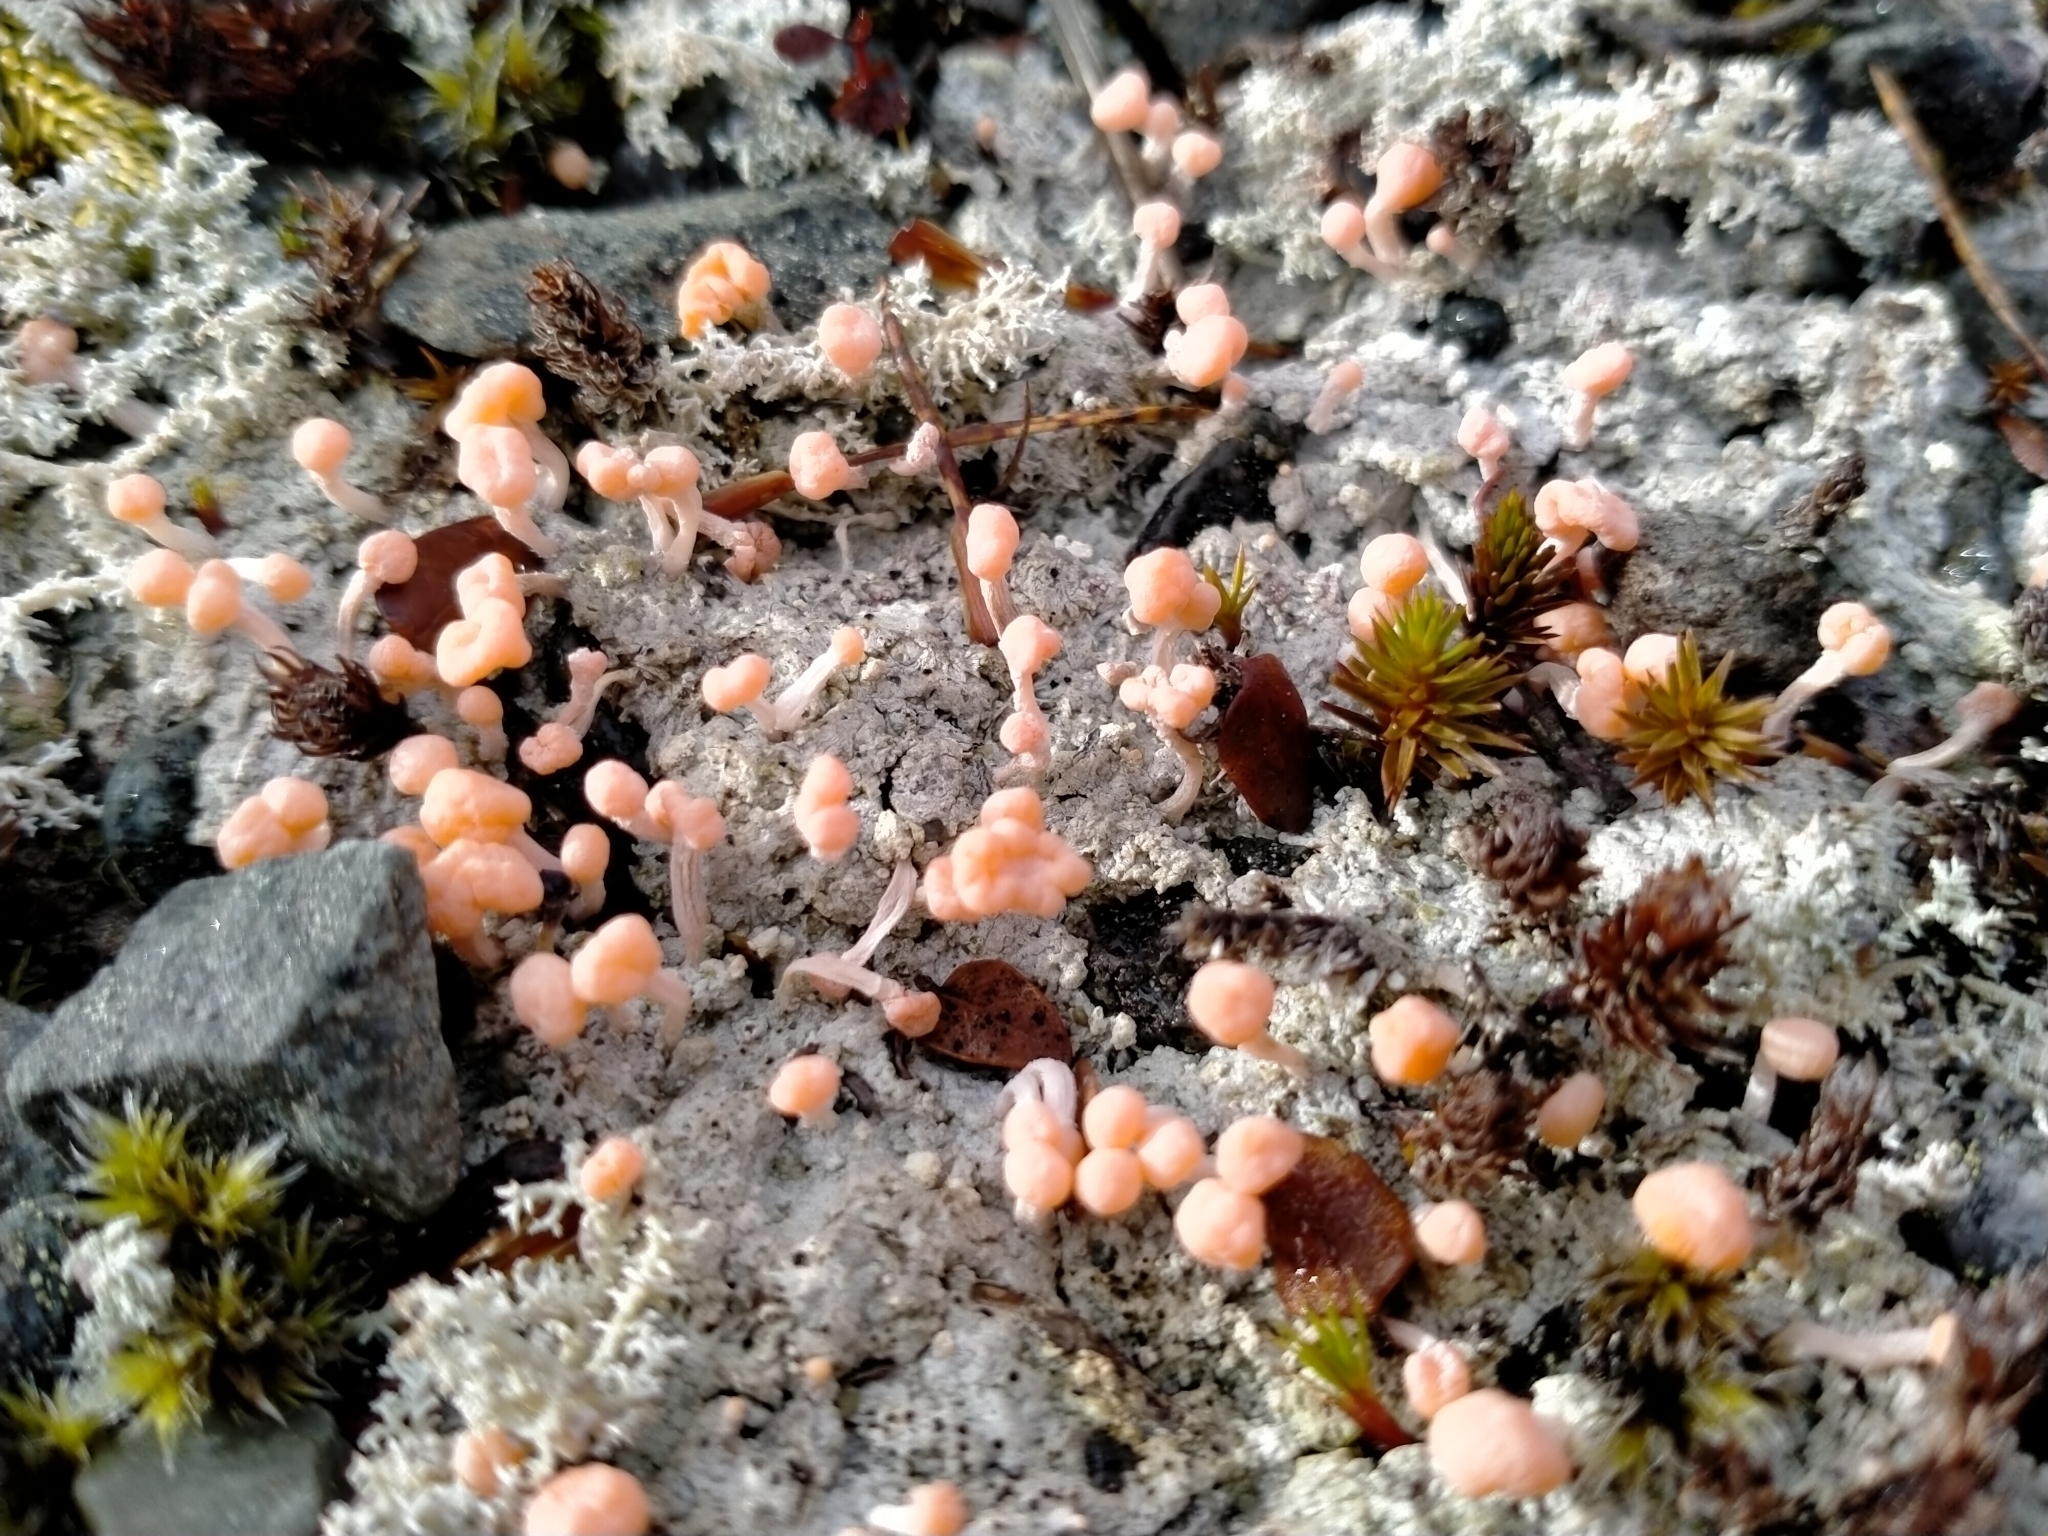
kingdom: Fungi
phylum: Ascomycota
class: Lecanoromycetes
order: Pertusariales
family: Icmadophilaceae
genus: Dibaeis
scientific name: Dibaeis arcuata
